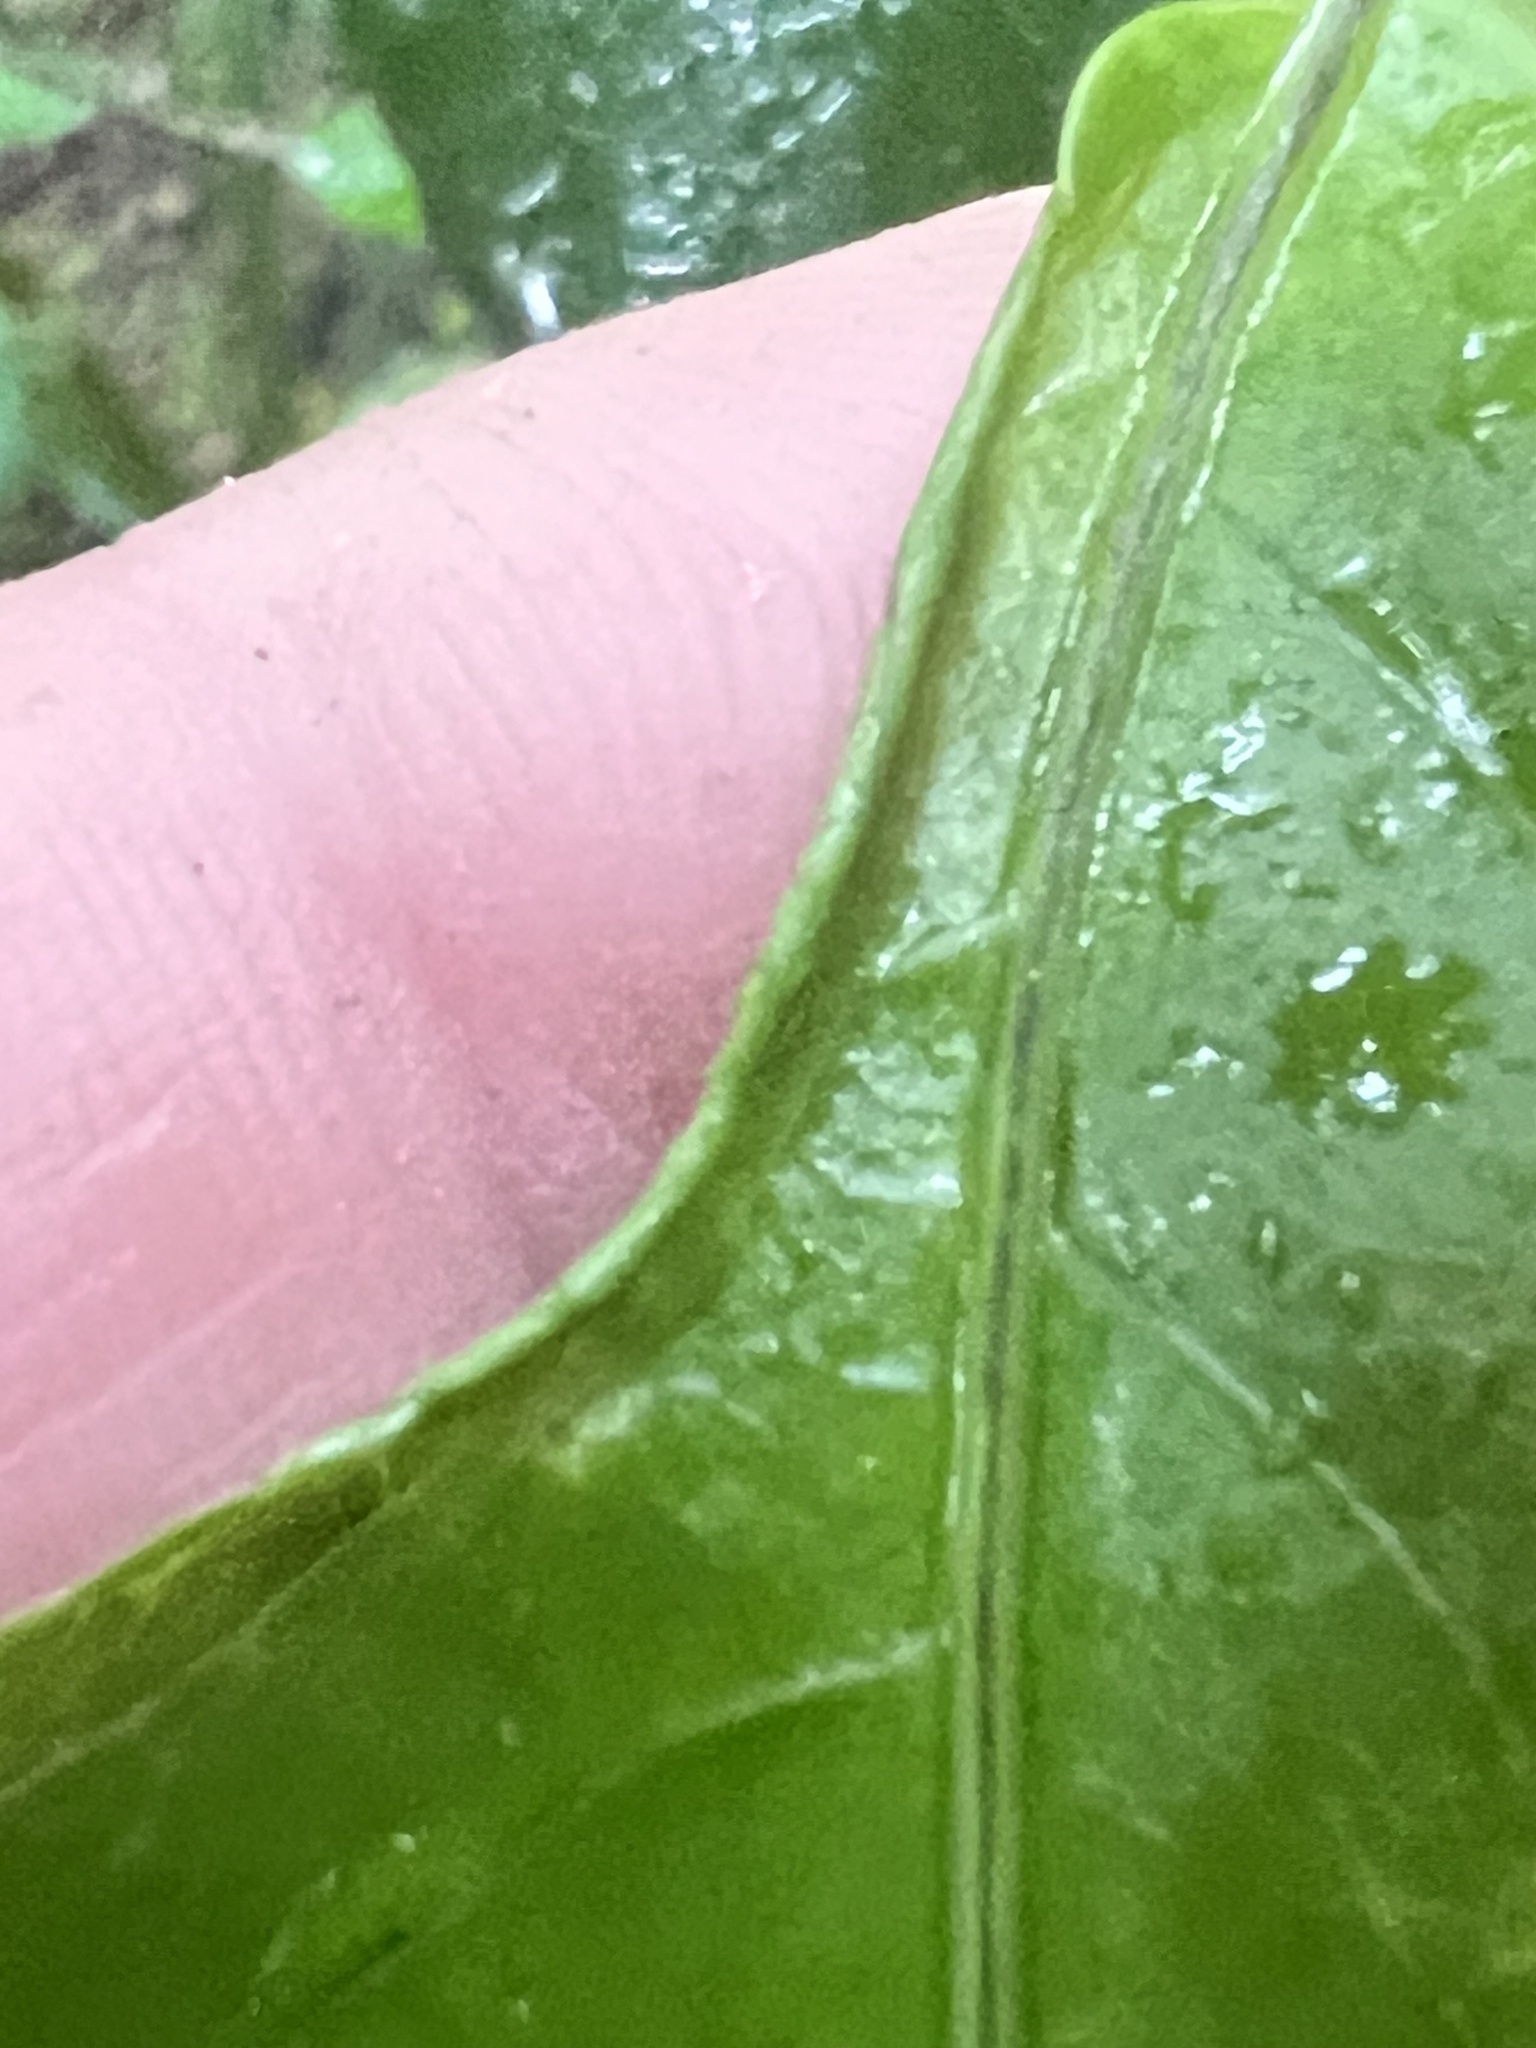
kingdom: Animalia
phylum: Arthropoda
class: Arachnida
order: Trombidiformes
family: Eriophyidae
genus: Aceria
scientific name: Aceria
